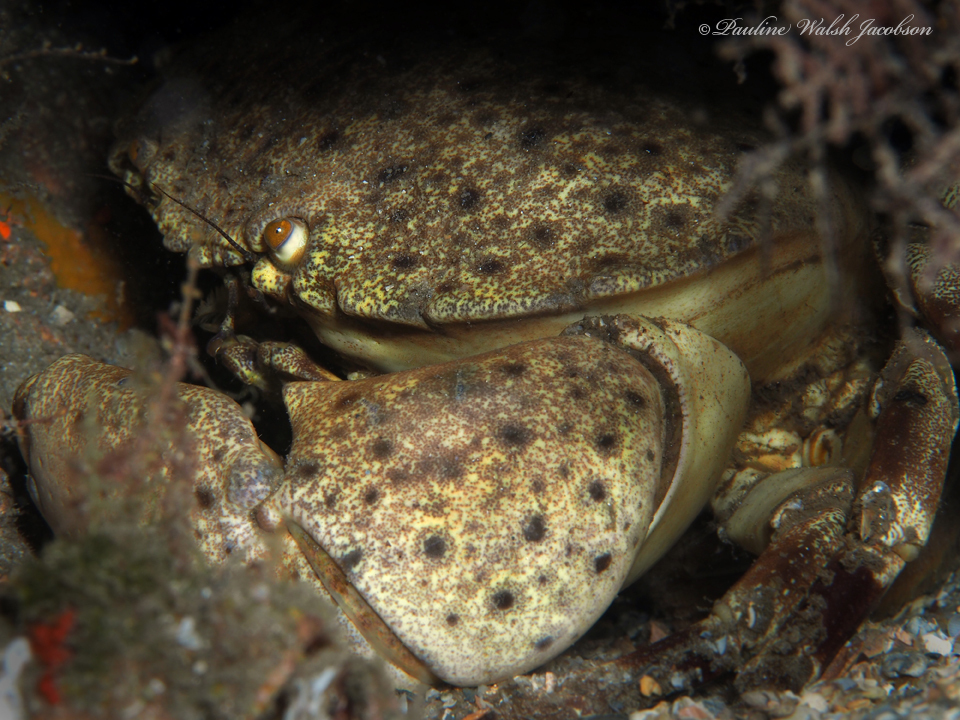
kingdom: Animalia
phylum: Arthropoda
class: Malacostraca
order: Decapoda
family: Menippidae
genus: Menippe
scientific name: Menippe mercenaria
